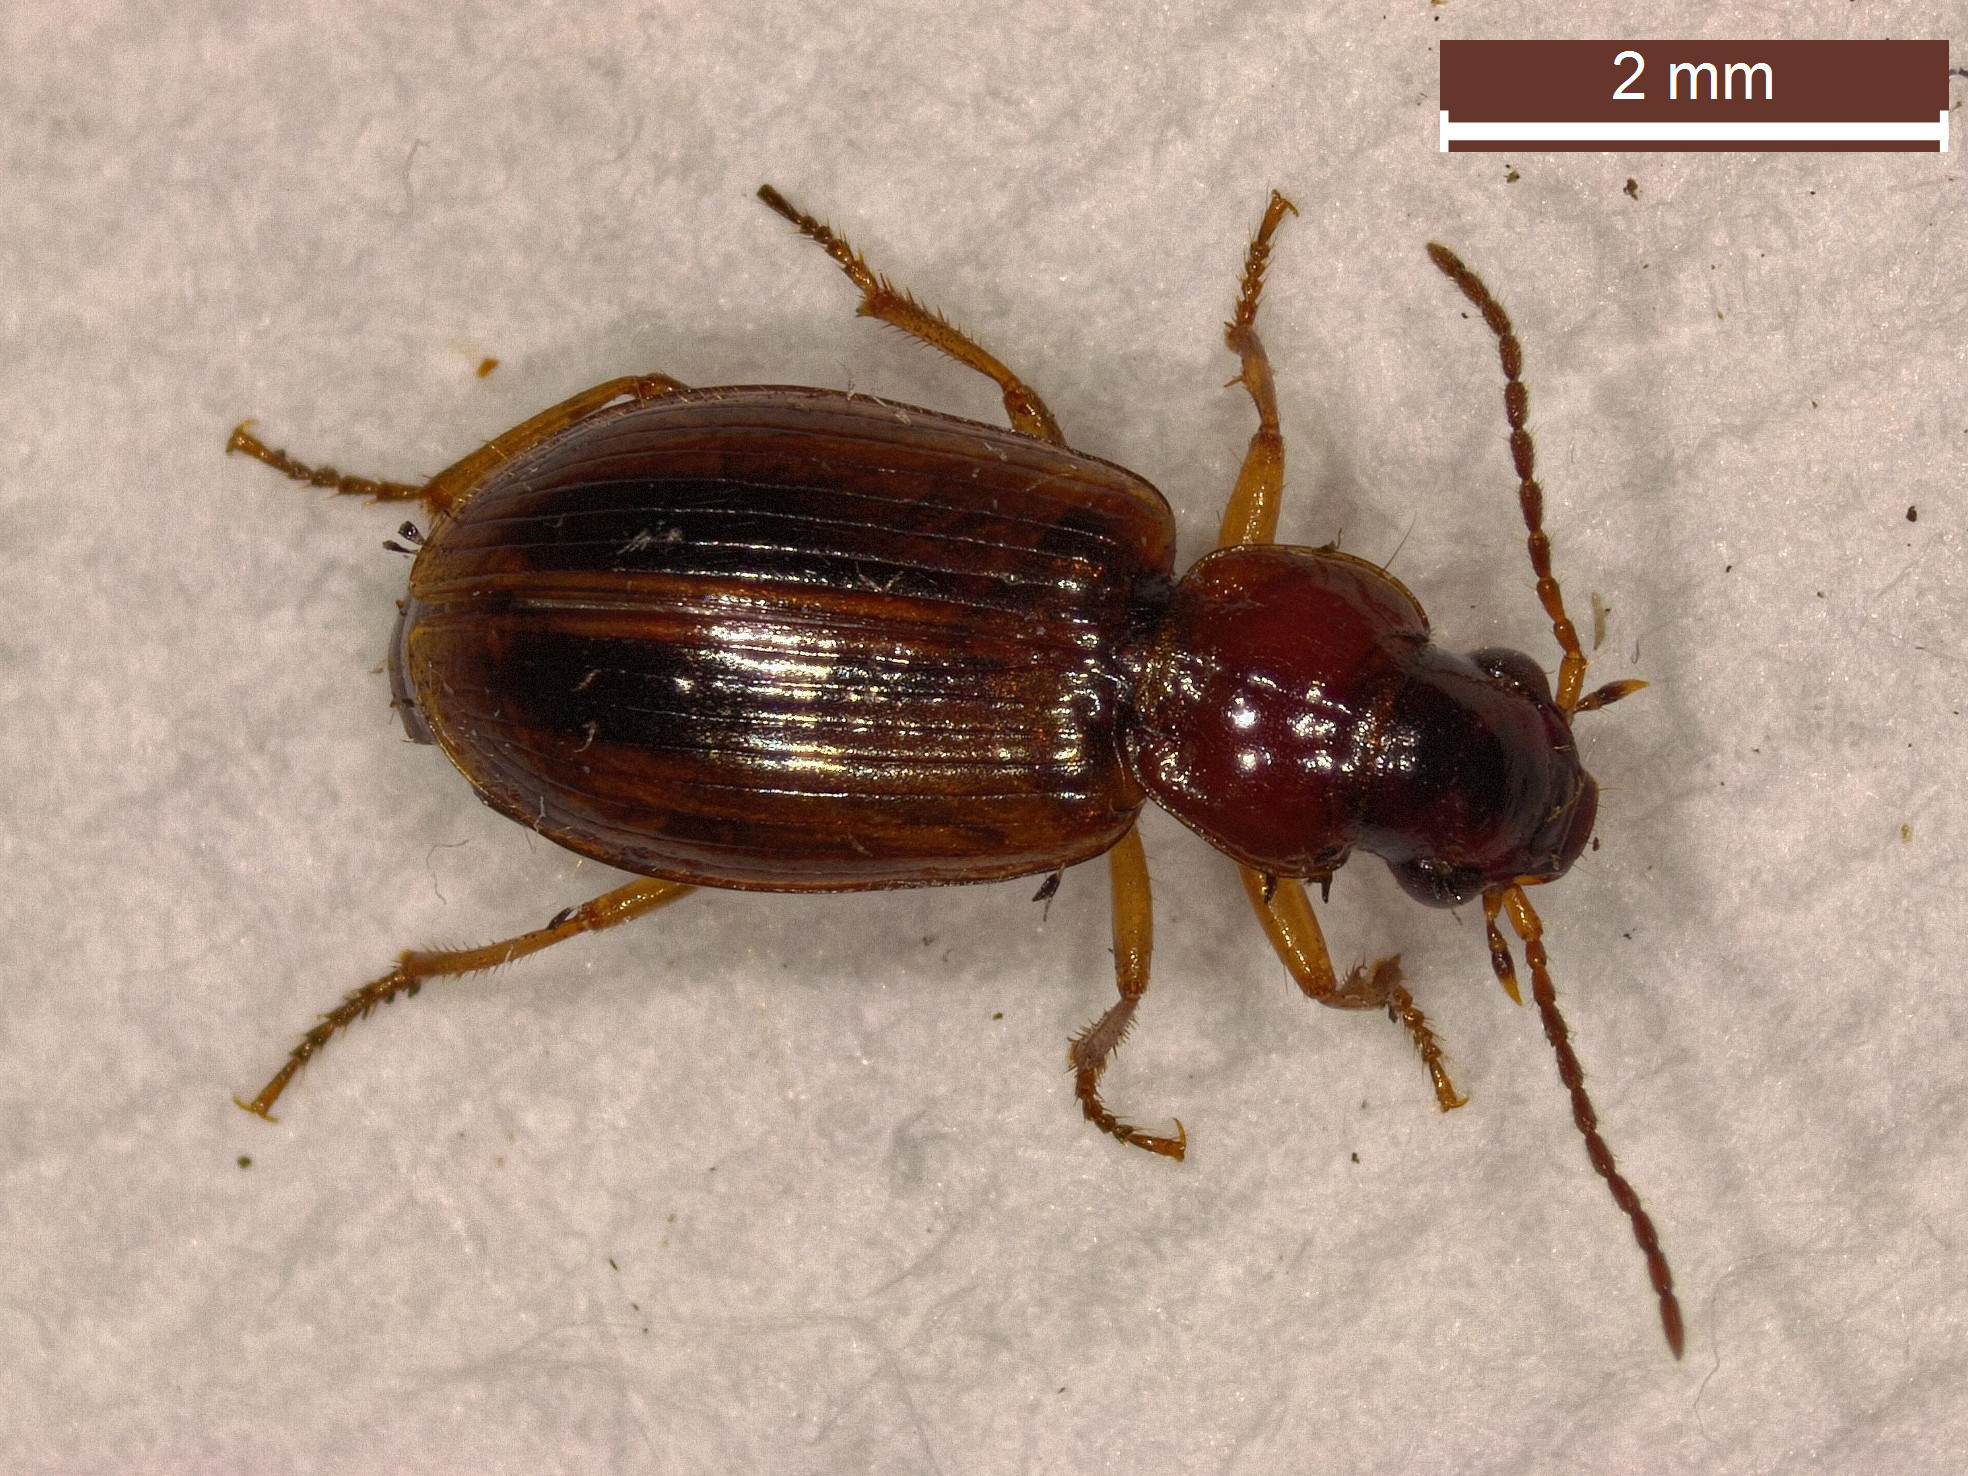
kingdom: Animalia
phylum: Arthropoda
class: Insecta
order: Coleoptera
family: Carabidae
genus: Dicheirotrichus
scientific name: Dicheirotrichus placidus
